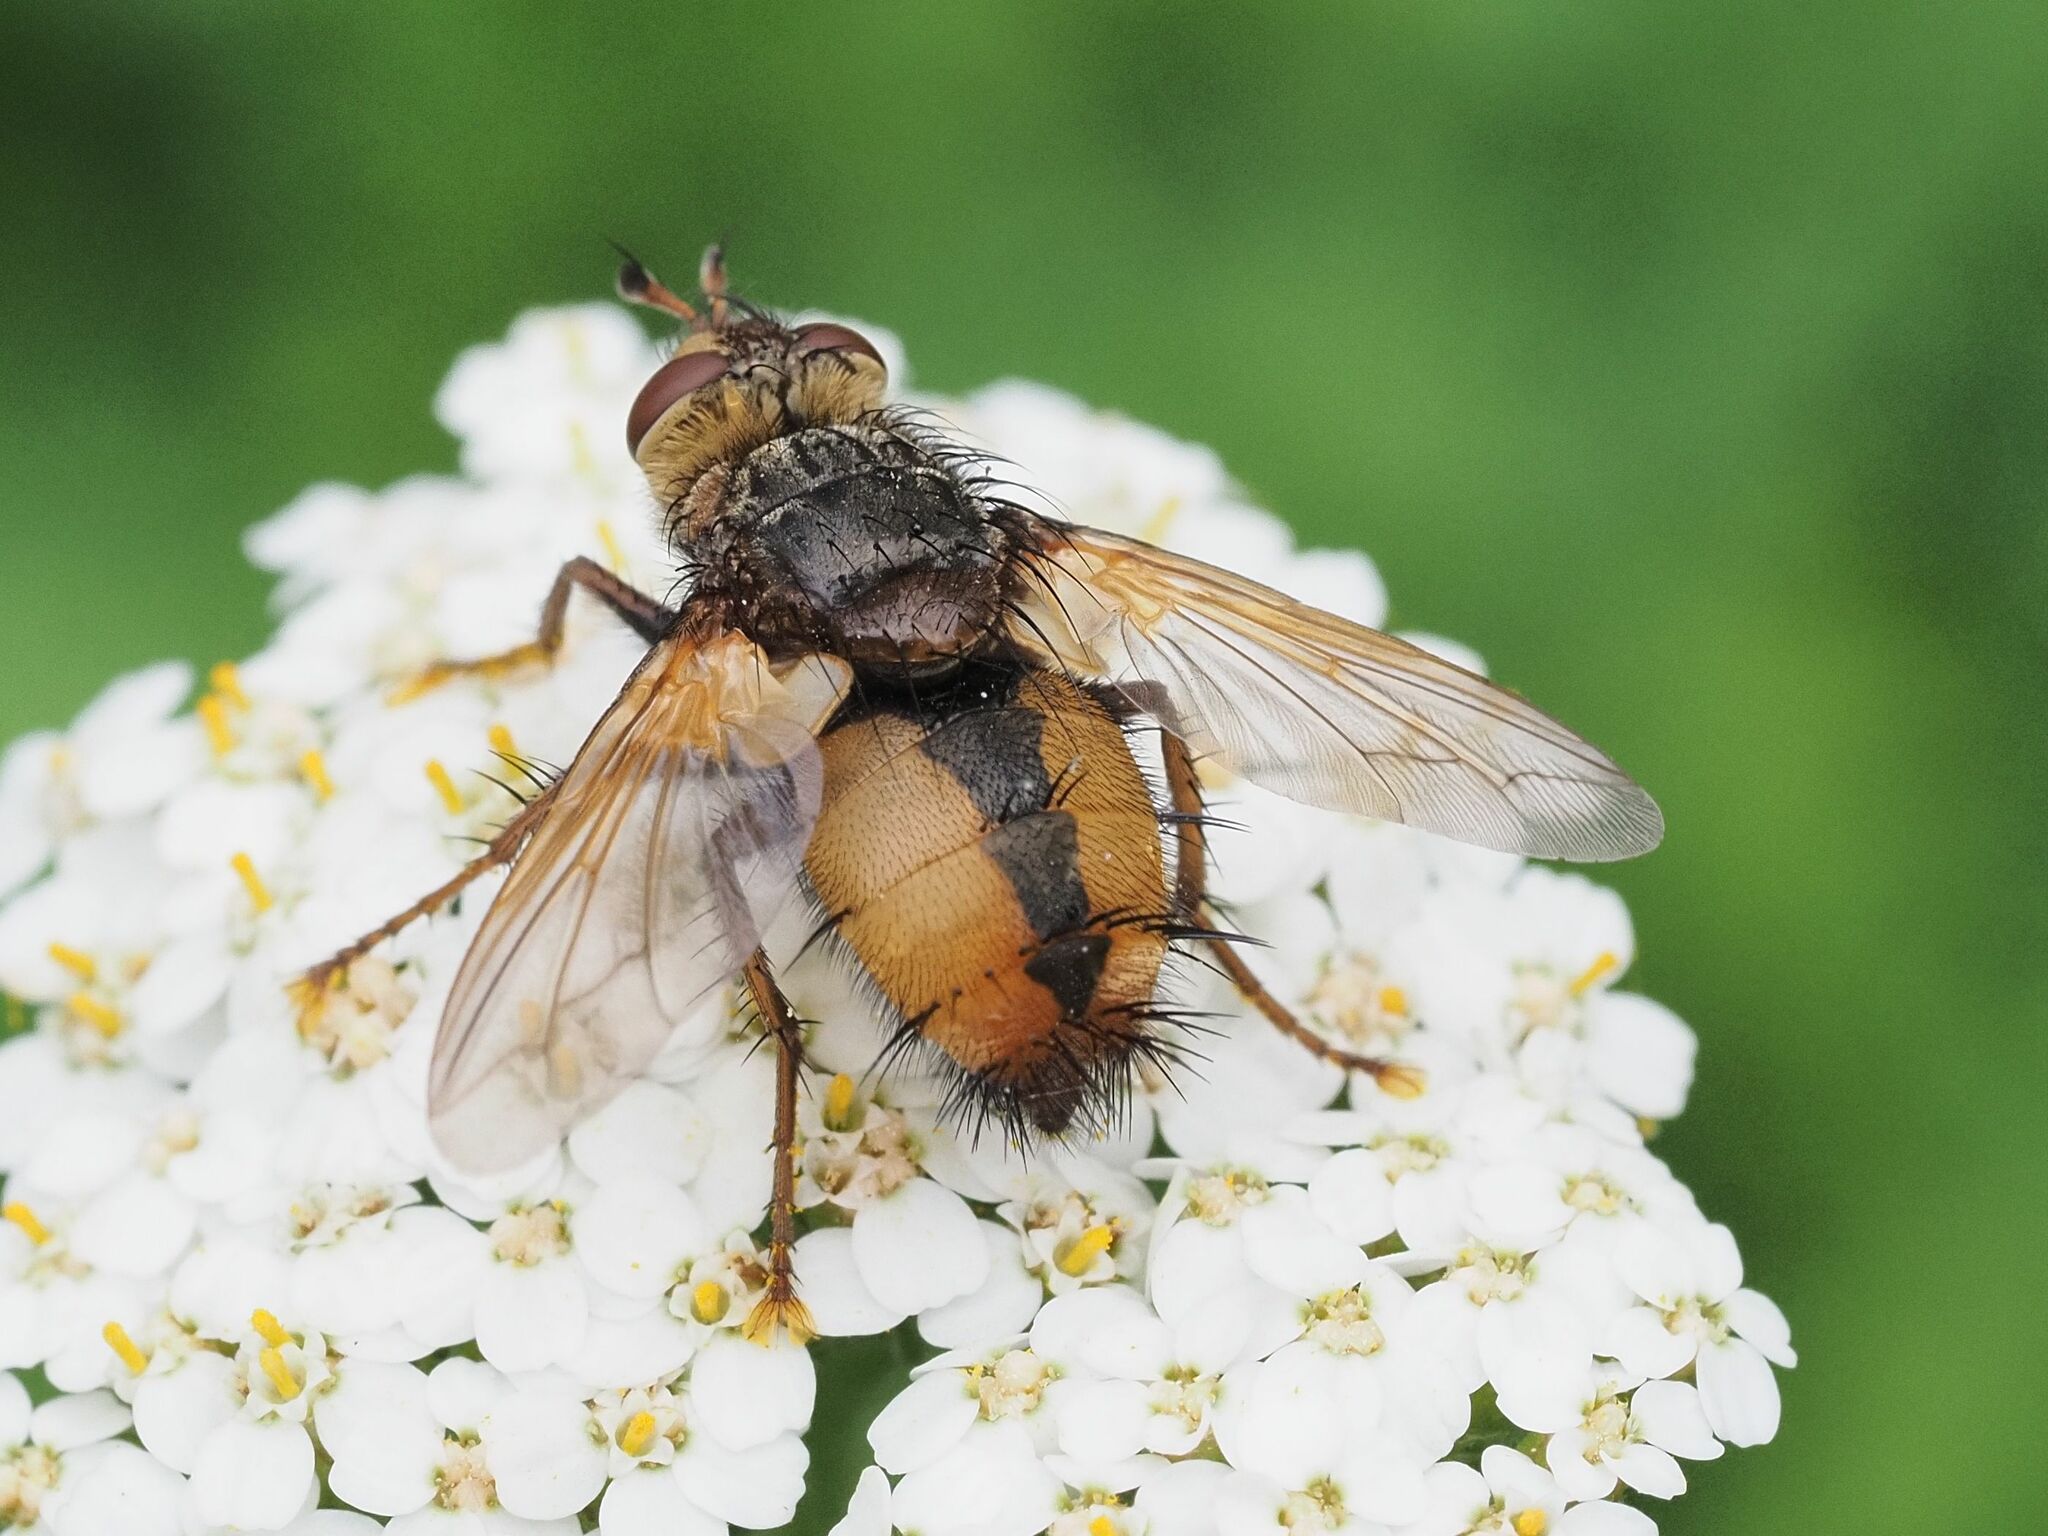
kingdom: Animalia
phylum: Arthropoda
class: Insecta
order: Diptera
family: Tachinidae
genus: Tachina
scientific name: Tachina fera
